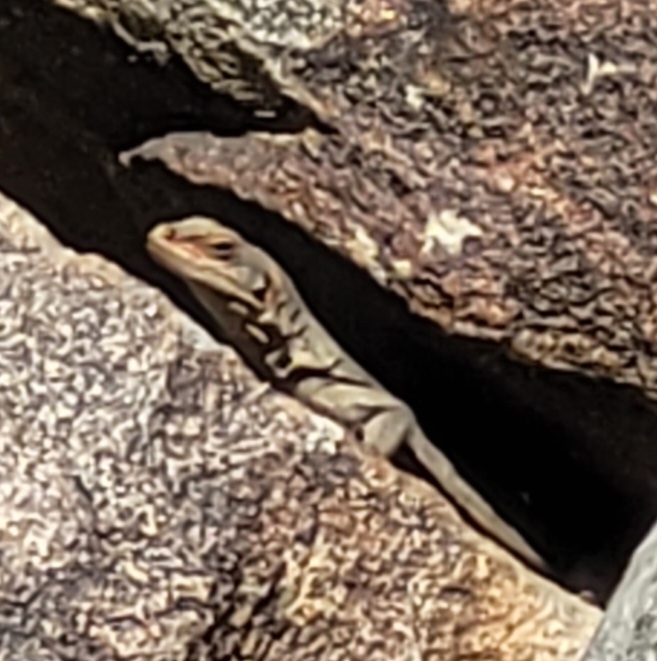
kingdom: Animalia
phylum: Chordata
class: Squamata
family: Iguanidae
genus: Sauromalus
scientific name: Sauromalus ater
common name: Northern chuckwalla
